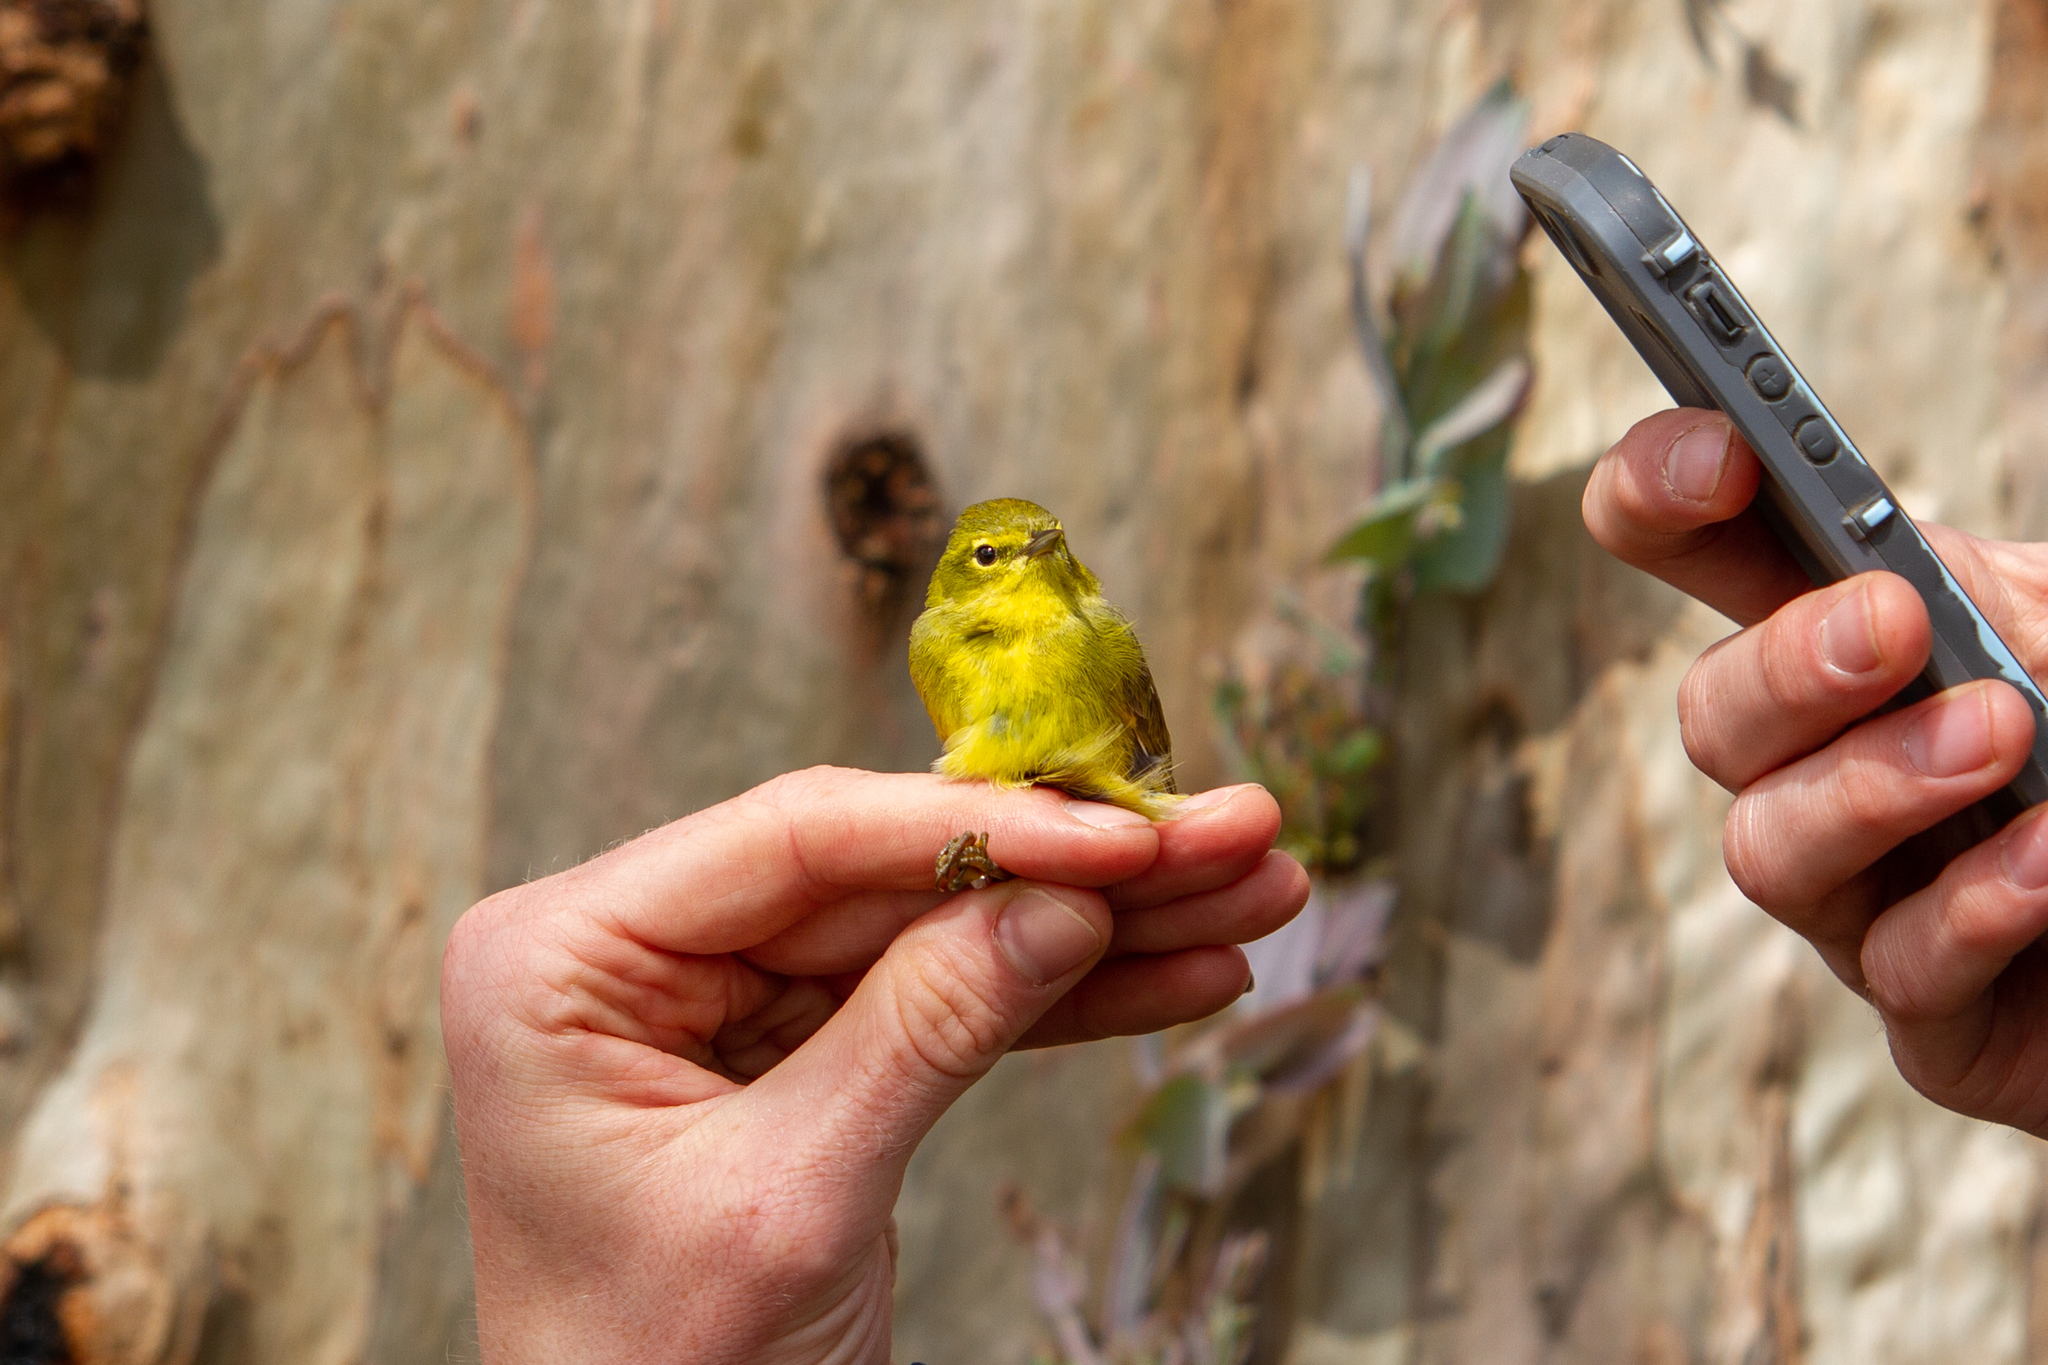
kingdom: Animalia
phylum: Chordata
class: Aves
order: Passeriformes
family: Parulidae
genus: Leiothlypis
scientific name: Leiothlypis celata
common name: Orange-crowned warbler
